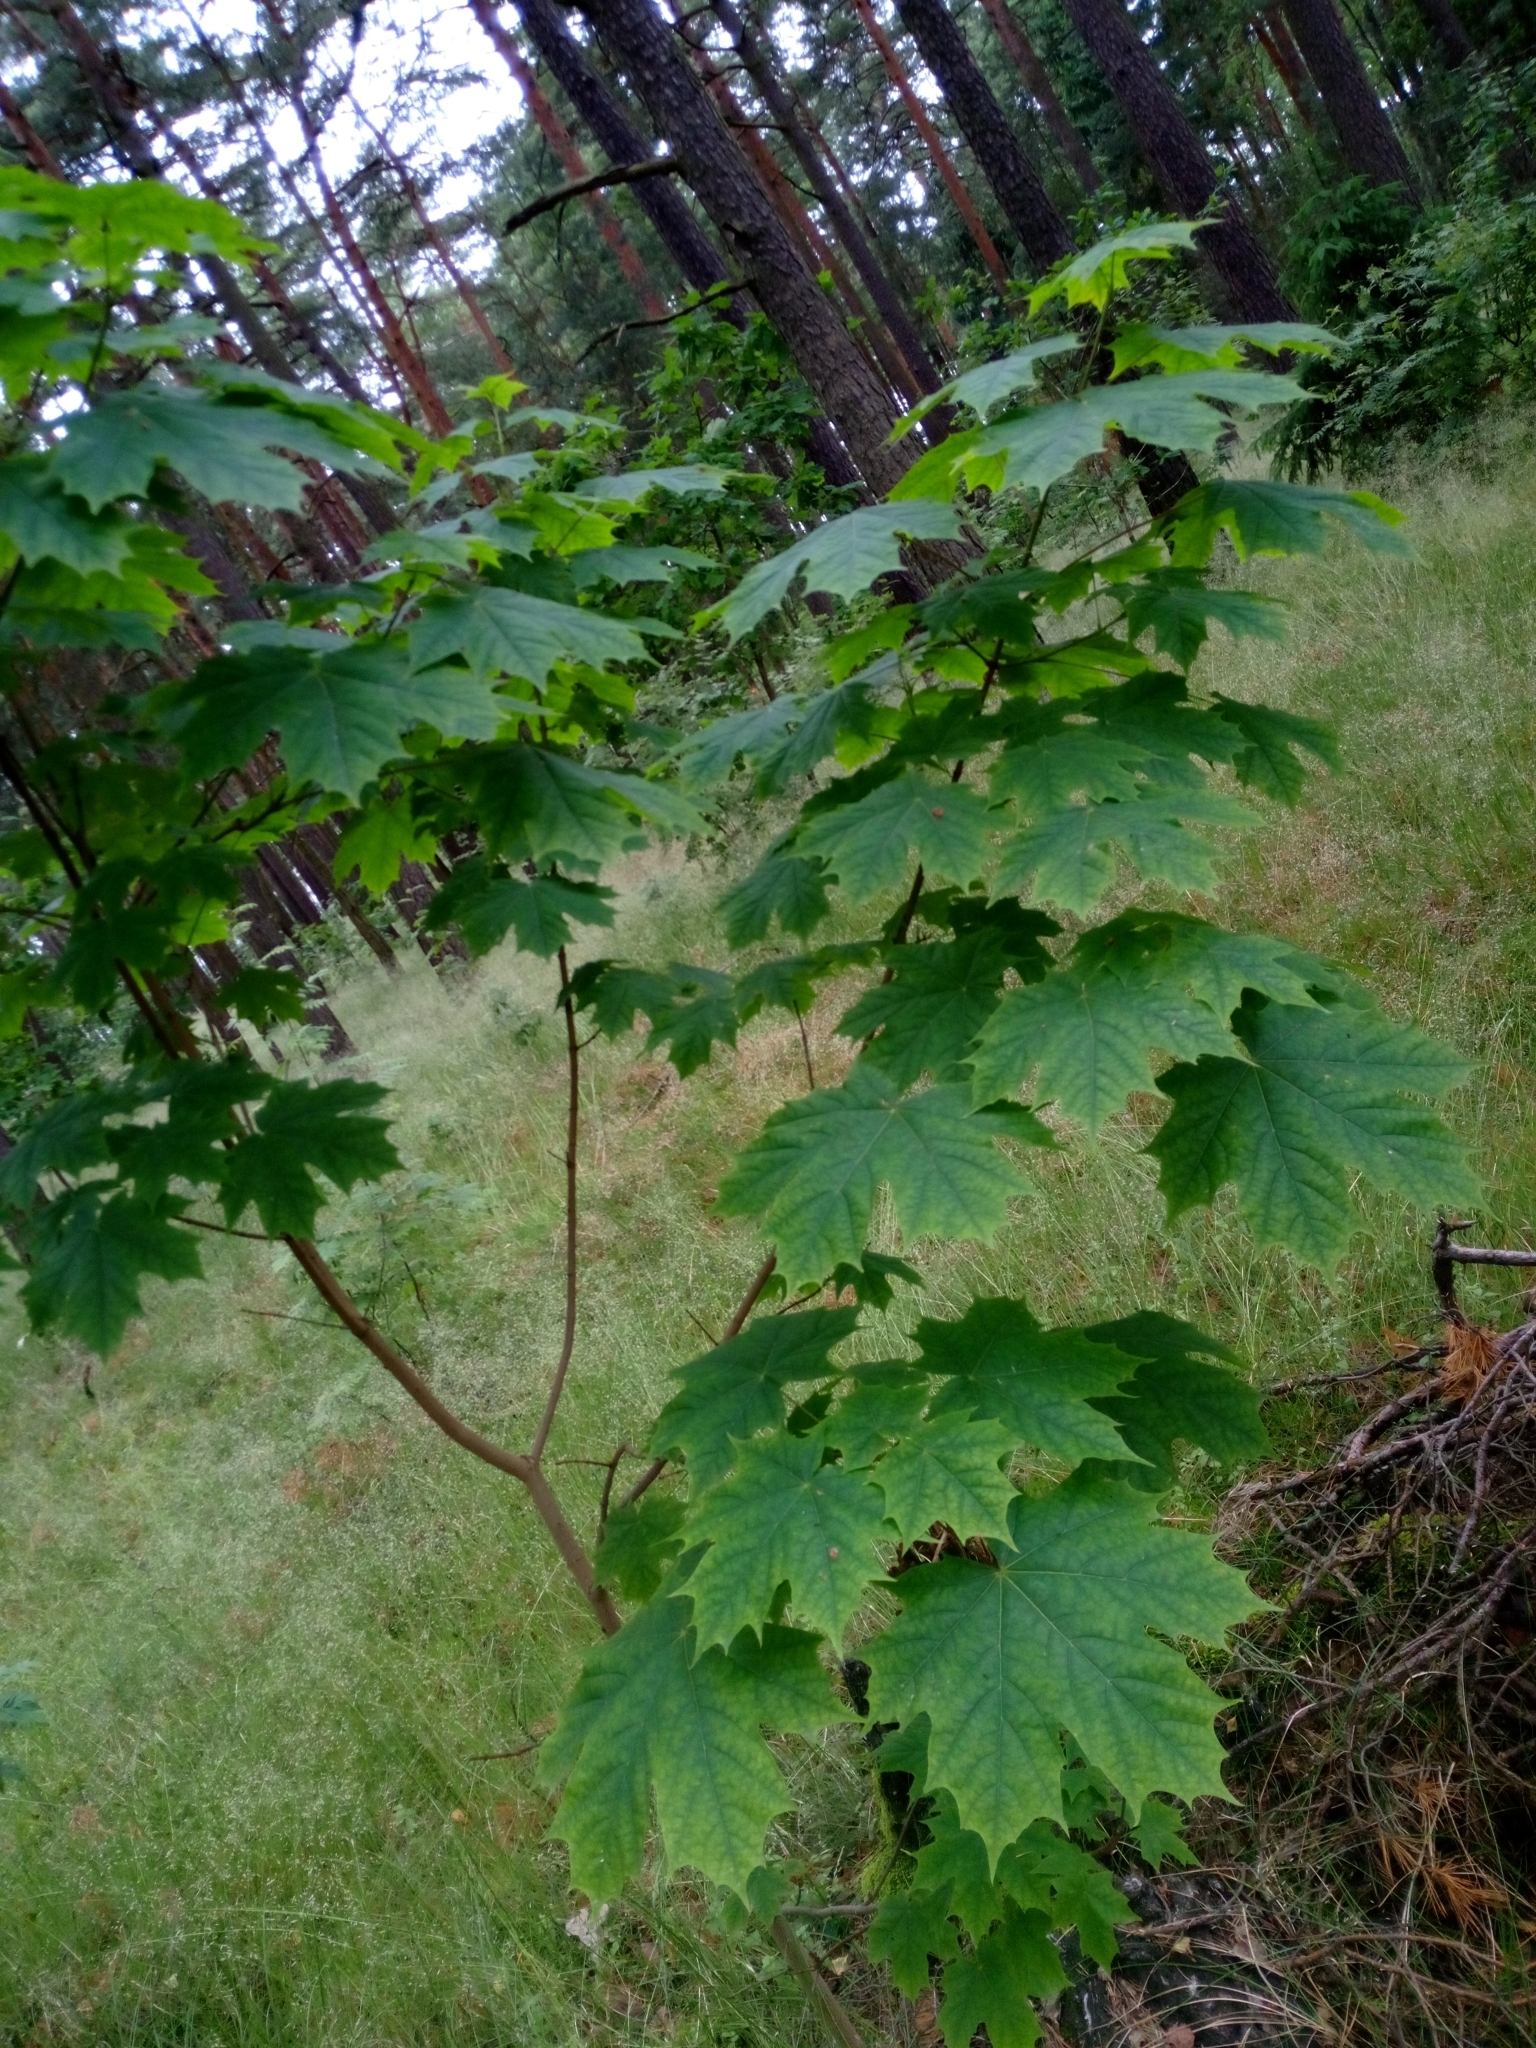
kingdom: Plantae
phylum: Tracheophyta
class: Magnoliopsida
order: Sapindales
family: Sapindaceae
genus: Acer
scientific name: Acer platanoides
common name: Norway maple
